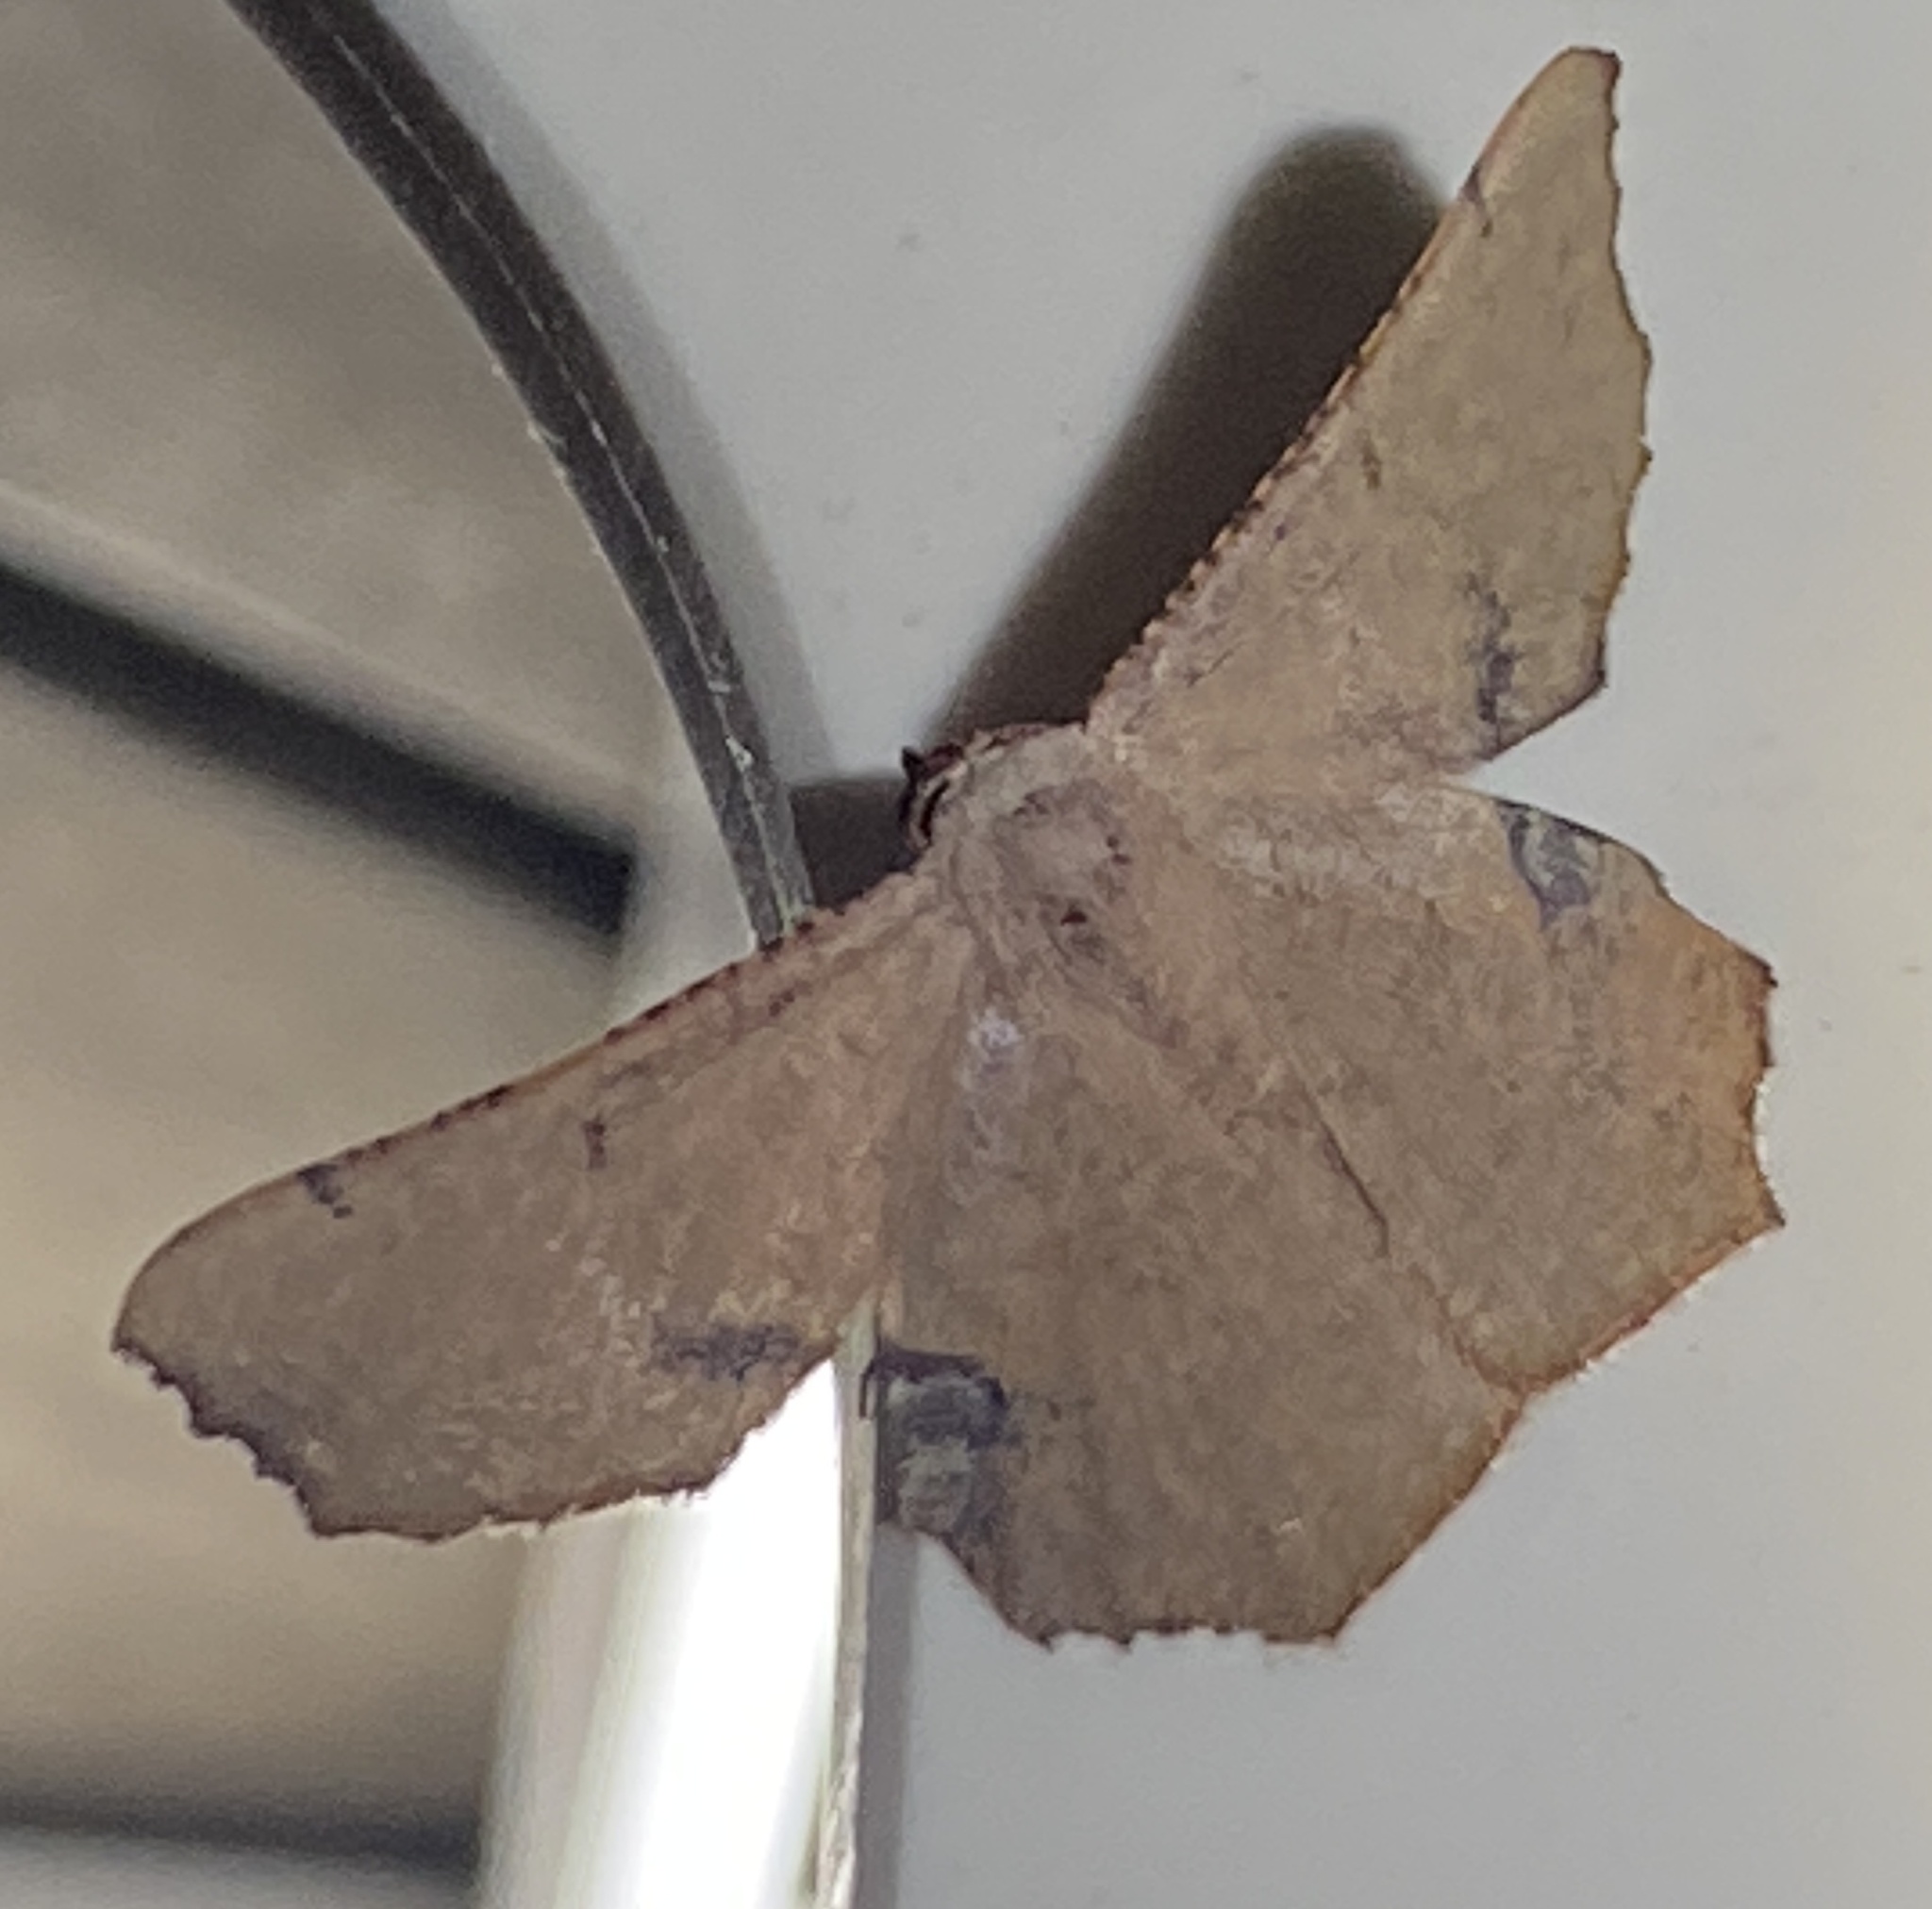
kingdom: Animalia
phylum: Arthropoda
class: Insecta
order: Lepidoptera
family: Geometridae
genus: Cernia
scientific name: Cernia amyclaria
